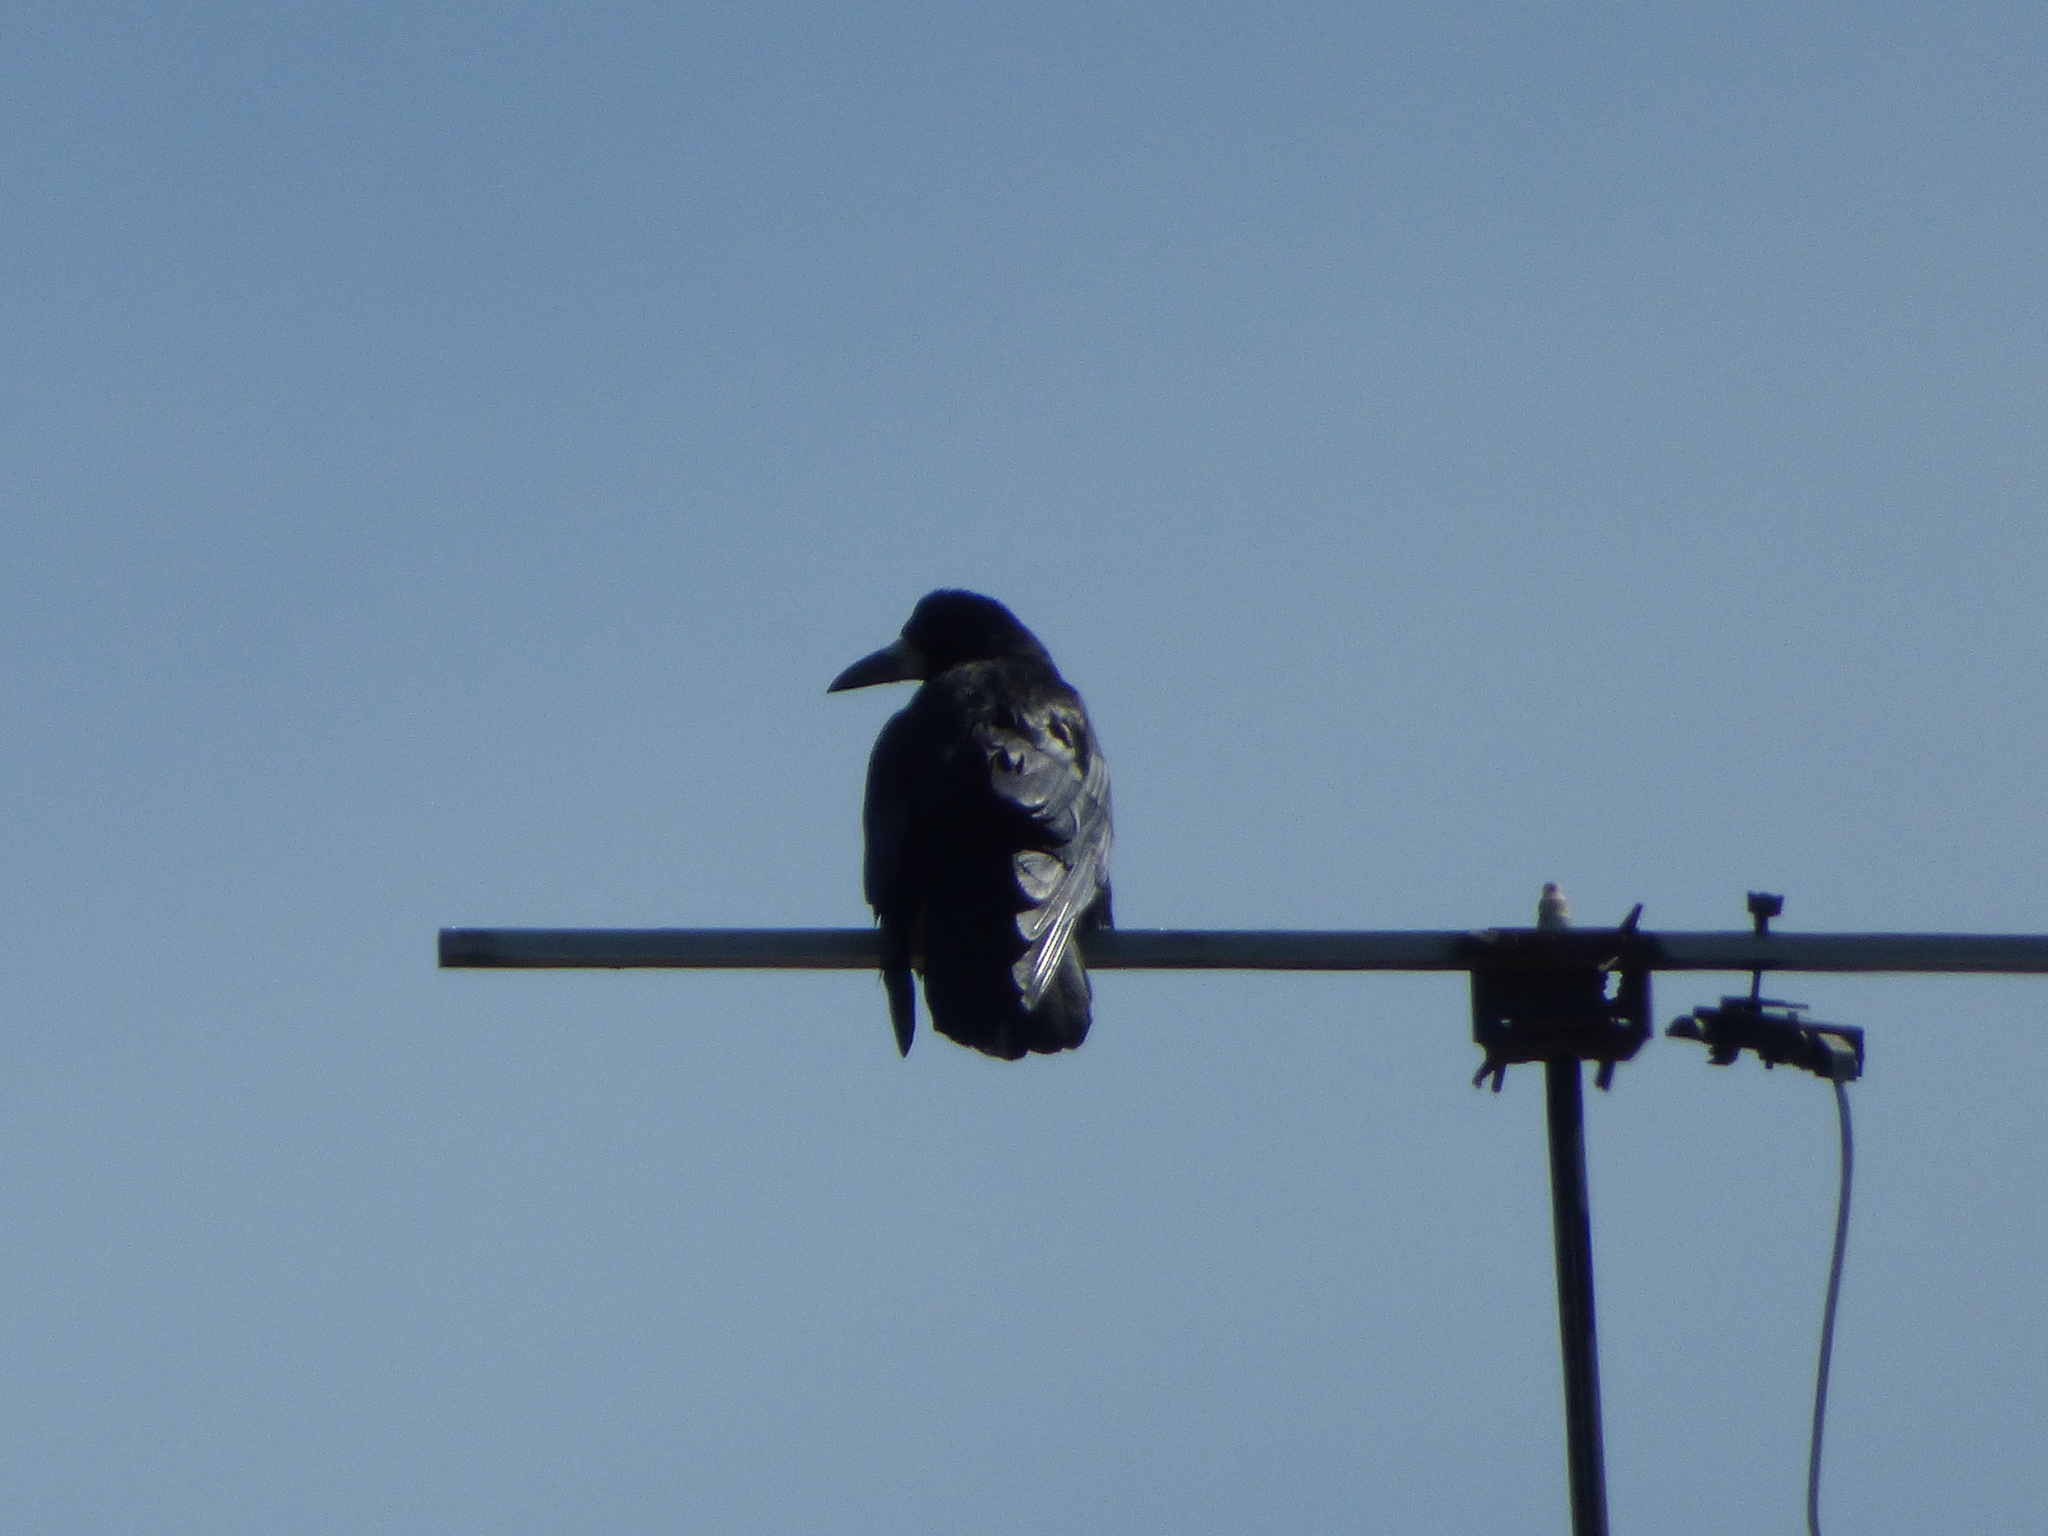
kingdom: Animalia
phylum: Chordata
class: Aves
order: Passeriformes
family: Corvidae
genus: Corvus
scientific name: Corvus frugilegus
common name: Rook
